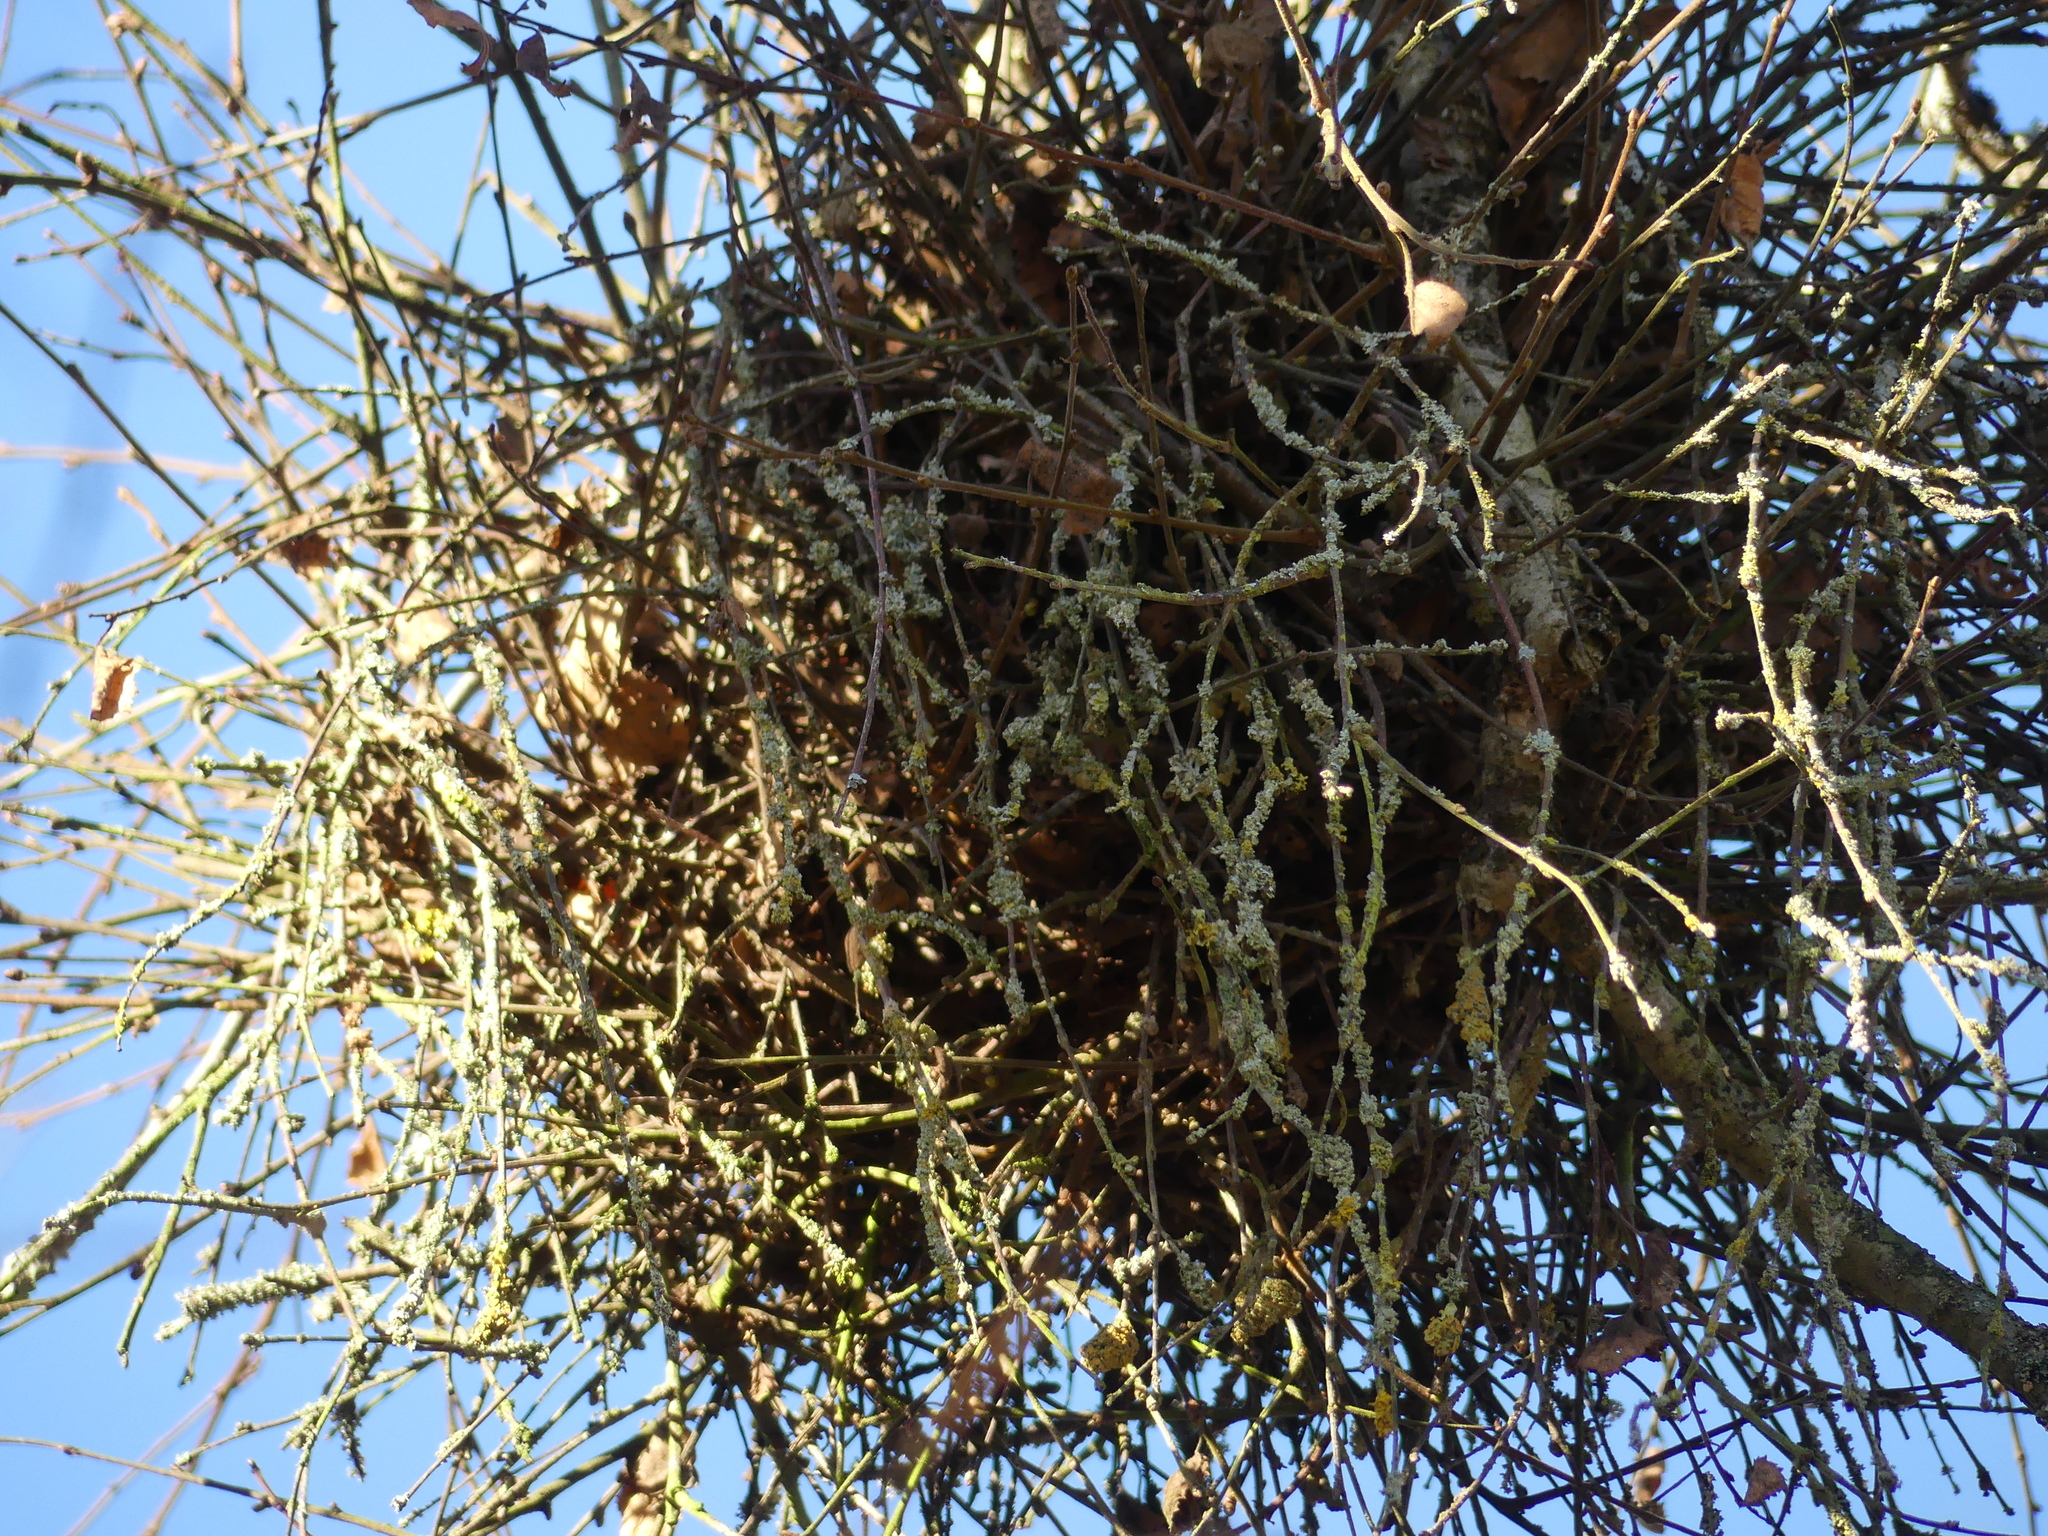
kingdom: Fungi
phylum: Ascomycota
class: Taphrinomycetes
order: Taphrinales
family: Taphrinaceae
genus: Taphrina
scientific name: Taphrina betulina
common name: Birch besom
